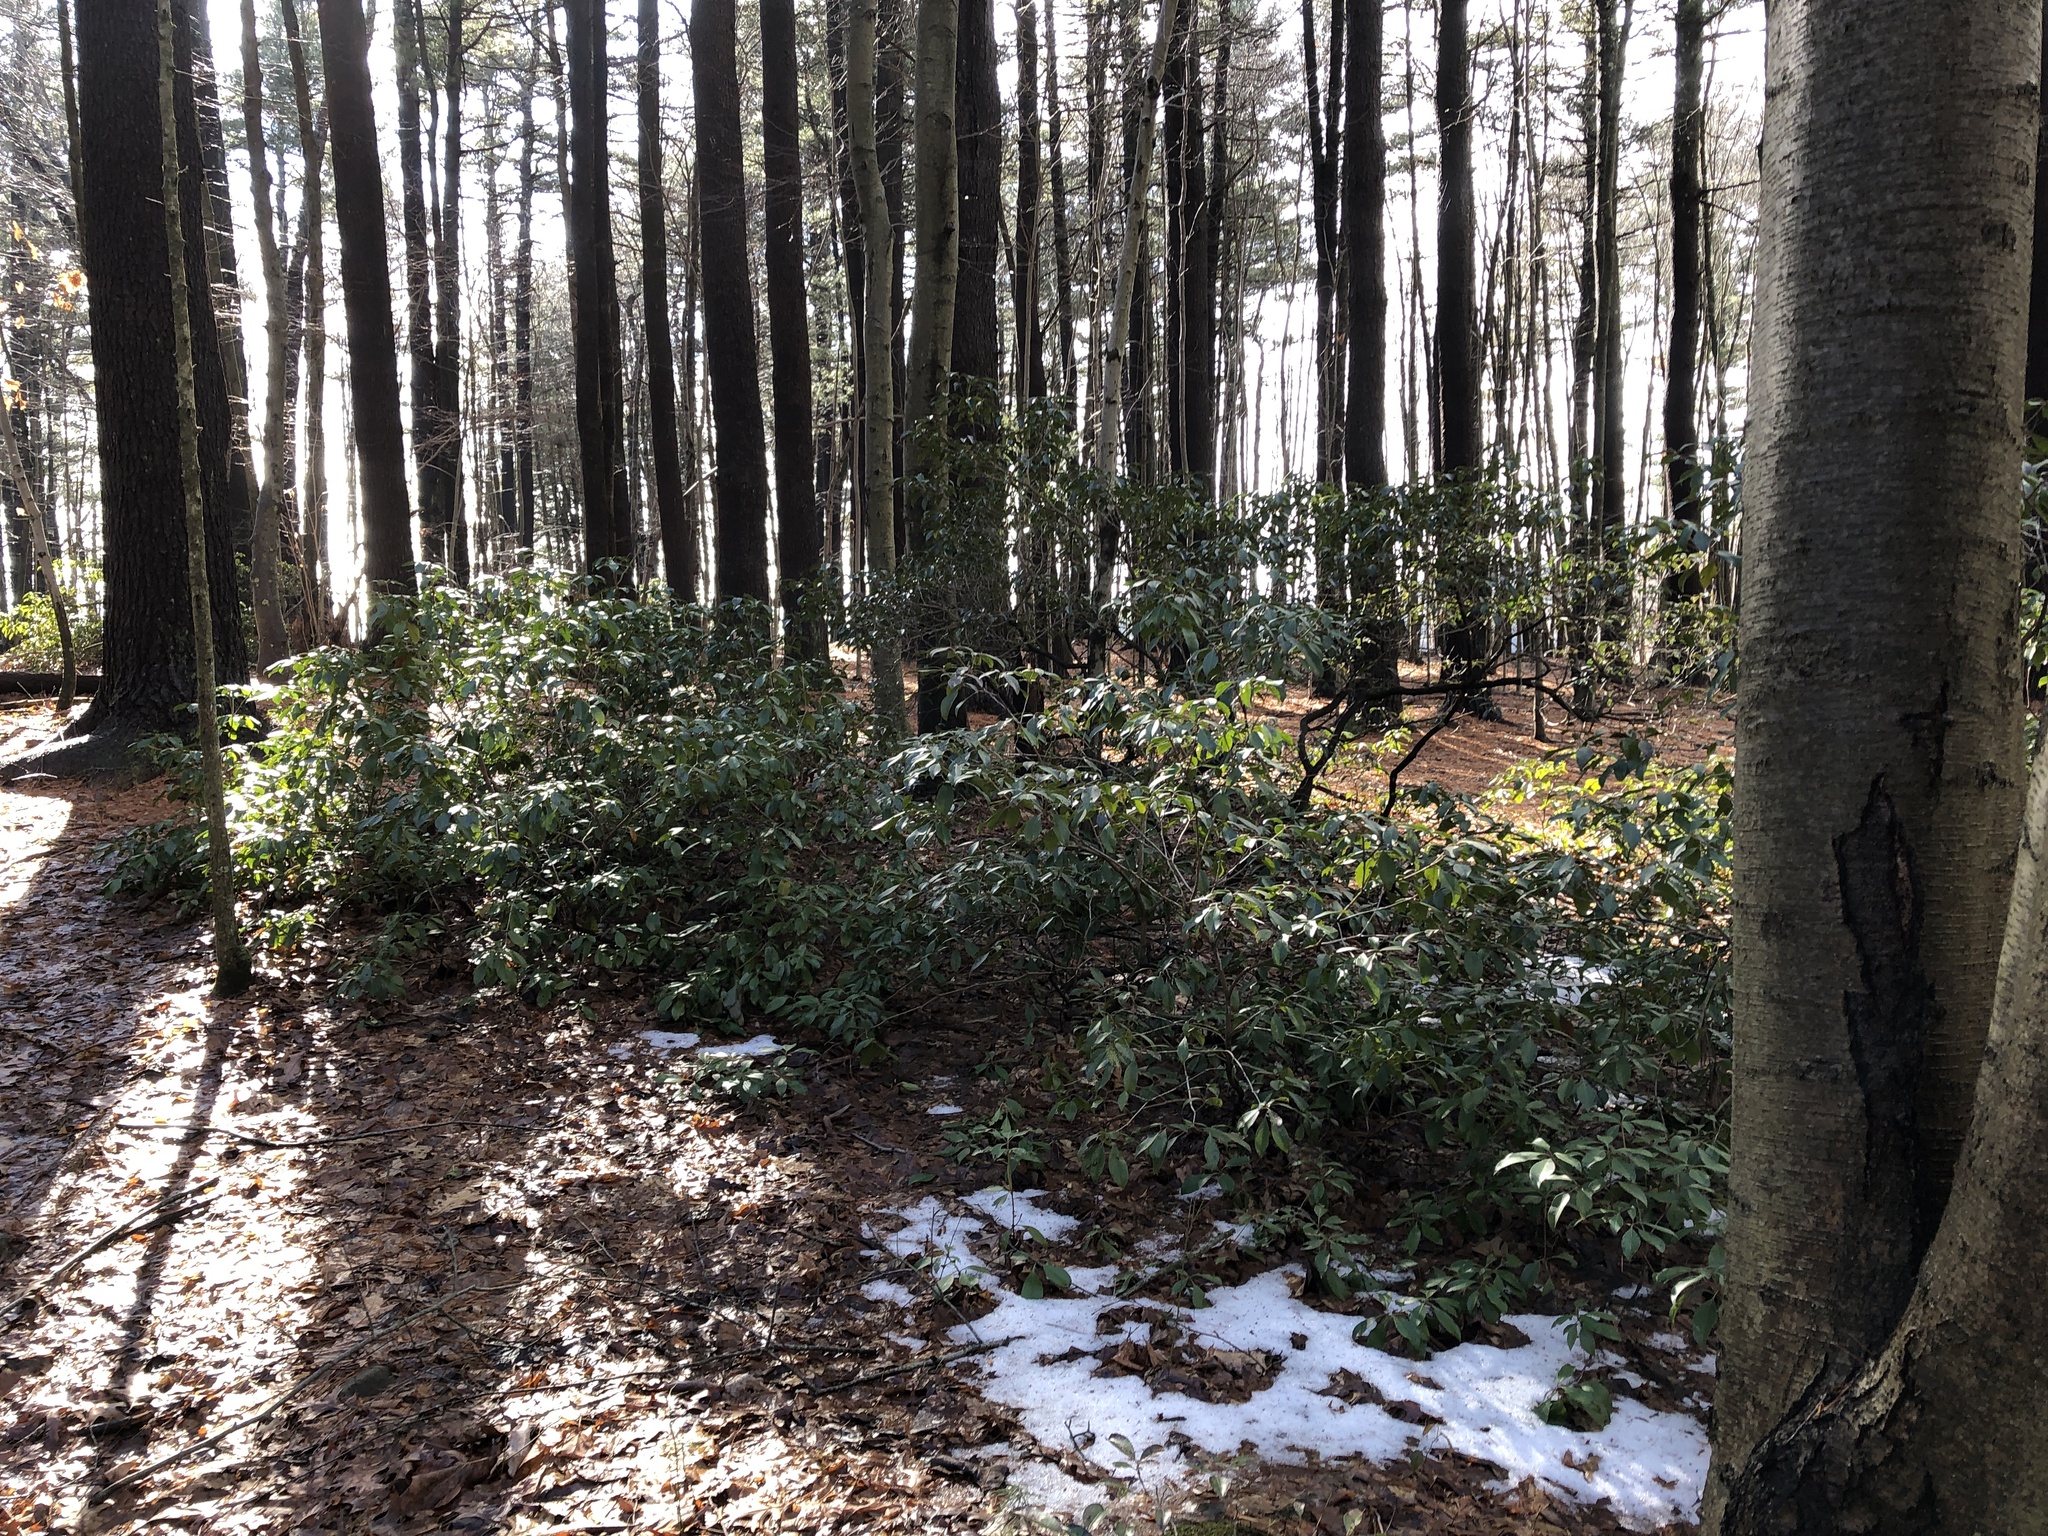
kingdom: Plantae
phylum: Tracheophyta
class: Magnoliopsida
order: Ericales
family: Ericaceae
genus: Kalmia
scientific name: Kalmia latifolia
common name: Mountain-laurel
